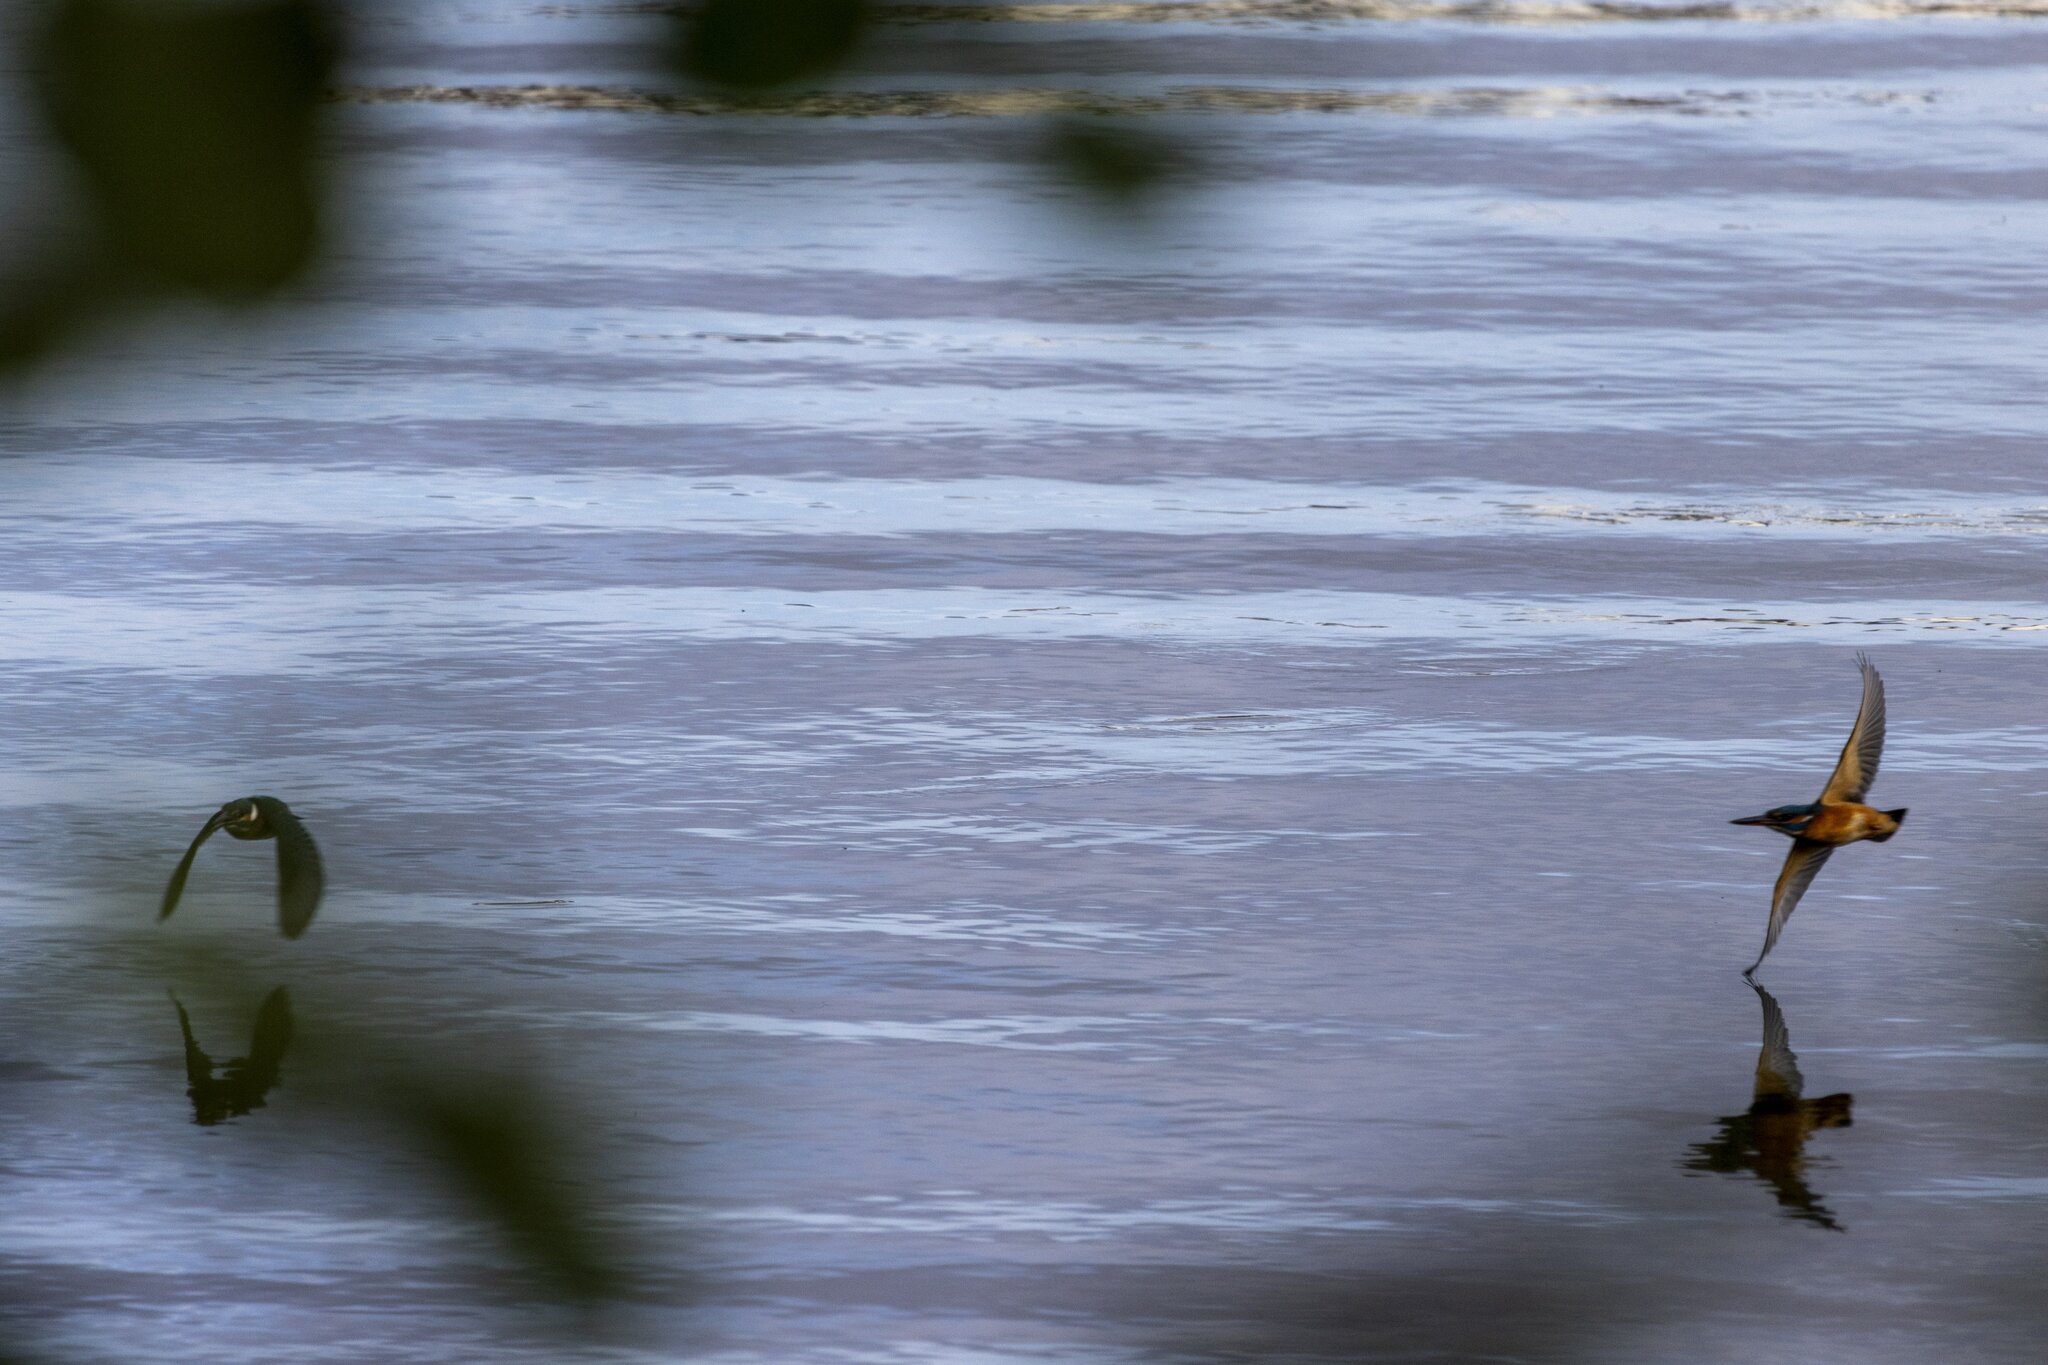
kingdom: Animalia
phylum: Chordata
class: Aves
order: Coraciiformes
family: Alcedinidae
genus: Alcedo
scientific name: Alcedo atthis
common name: Common kingfisher
